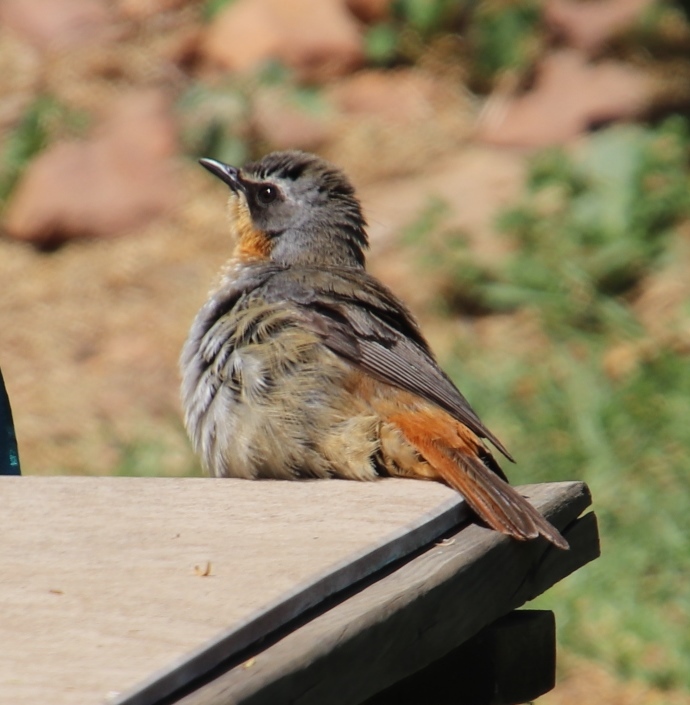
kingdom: Animalia
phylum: Chordata
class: Aves
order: Passeriformes
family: Muscicapidae
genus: Cossypha
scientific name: Cossypha caffra
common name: Cape robin-chat
